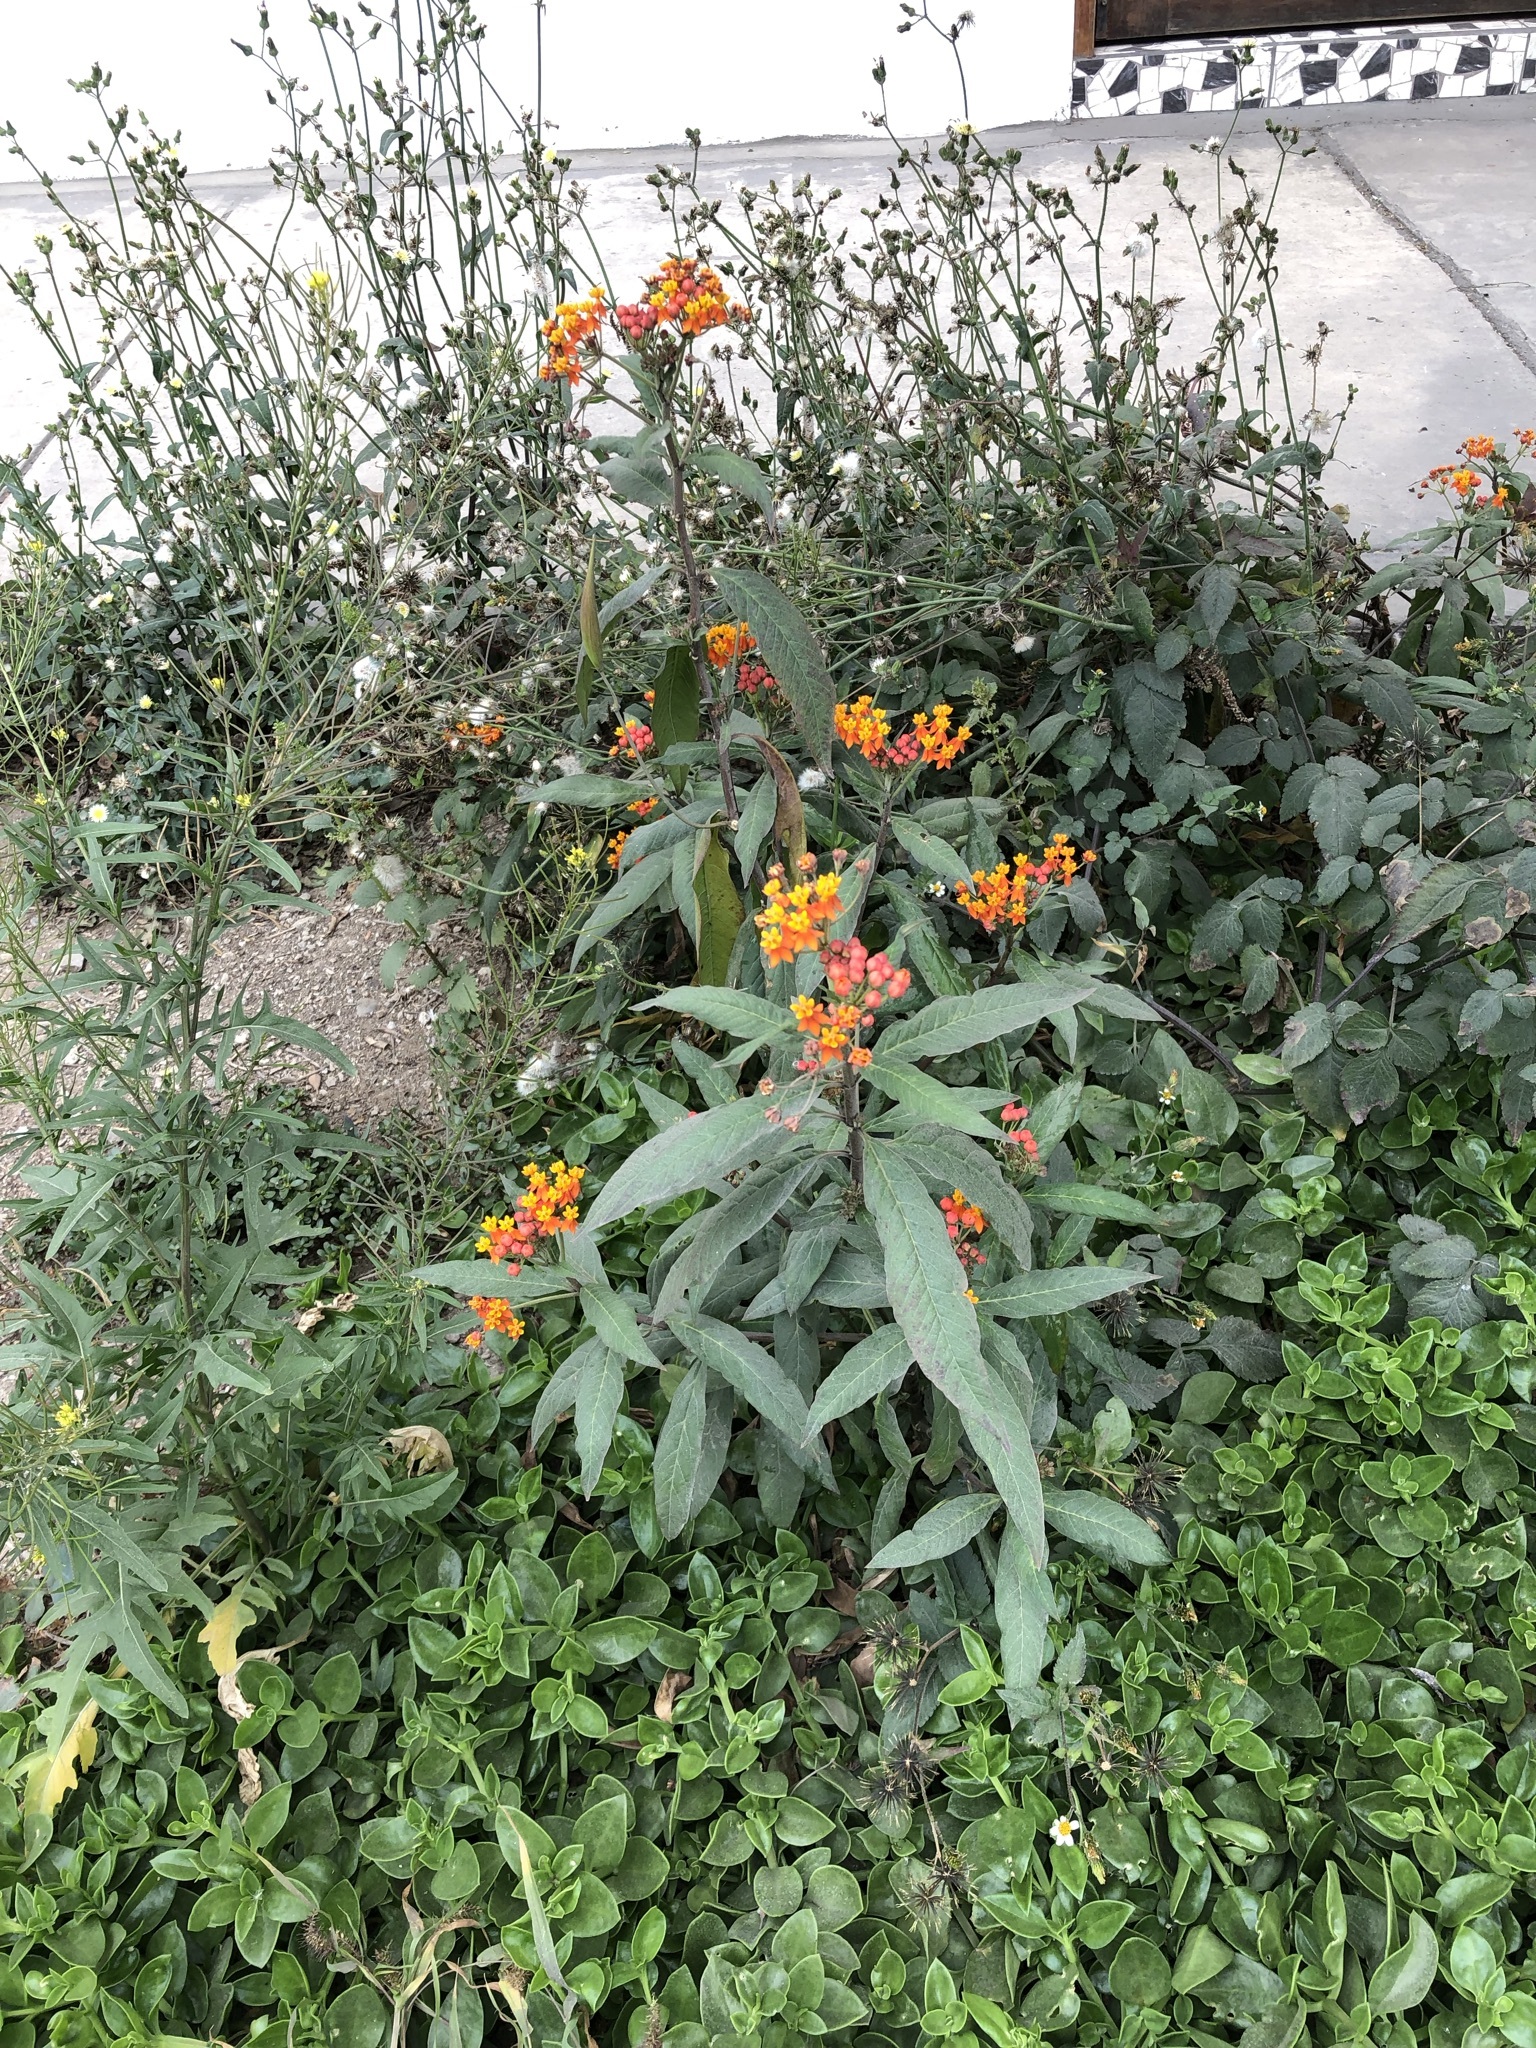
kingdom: Plantae
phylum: Tracheophyta
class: Magnoliopsida
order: Gentianales
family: Apocynaceae
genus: Asclepias
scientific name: Asclepias curassavica
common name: Bloodflower
